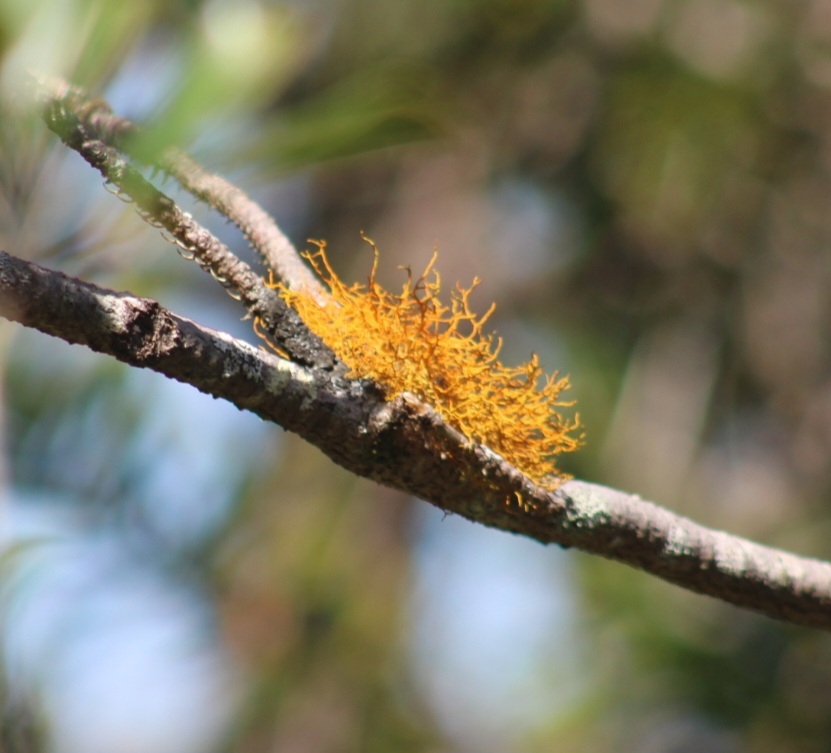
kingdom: Fungi
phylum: Ascomycota
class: Lecanoromycetes
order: Teloschistales
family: Teloschistaceae
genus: Teloschistes
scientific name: Teloschistes flavicans
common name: Golden hair-lichen
